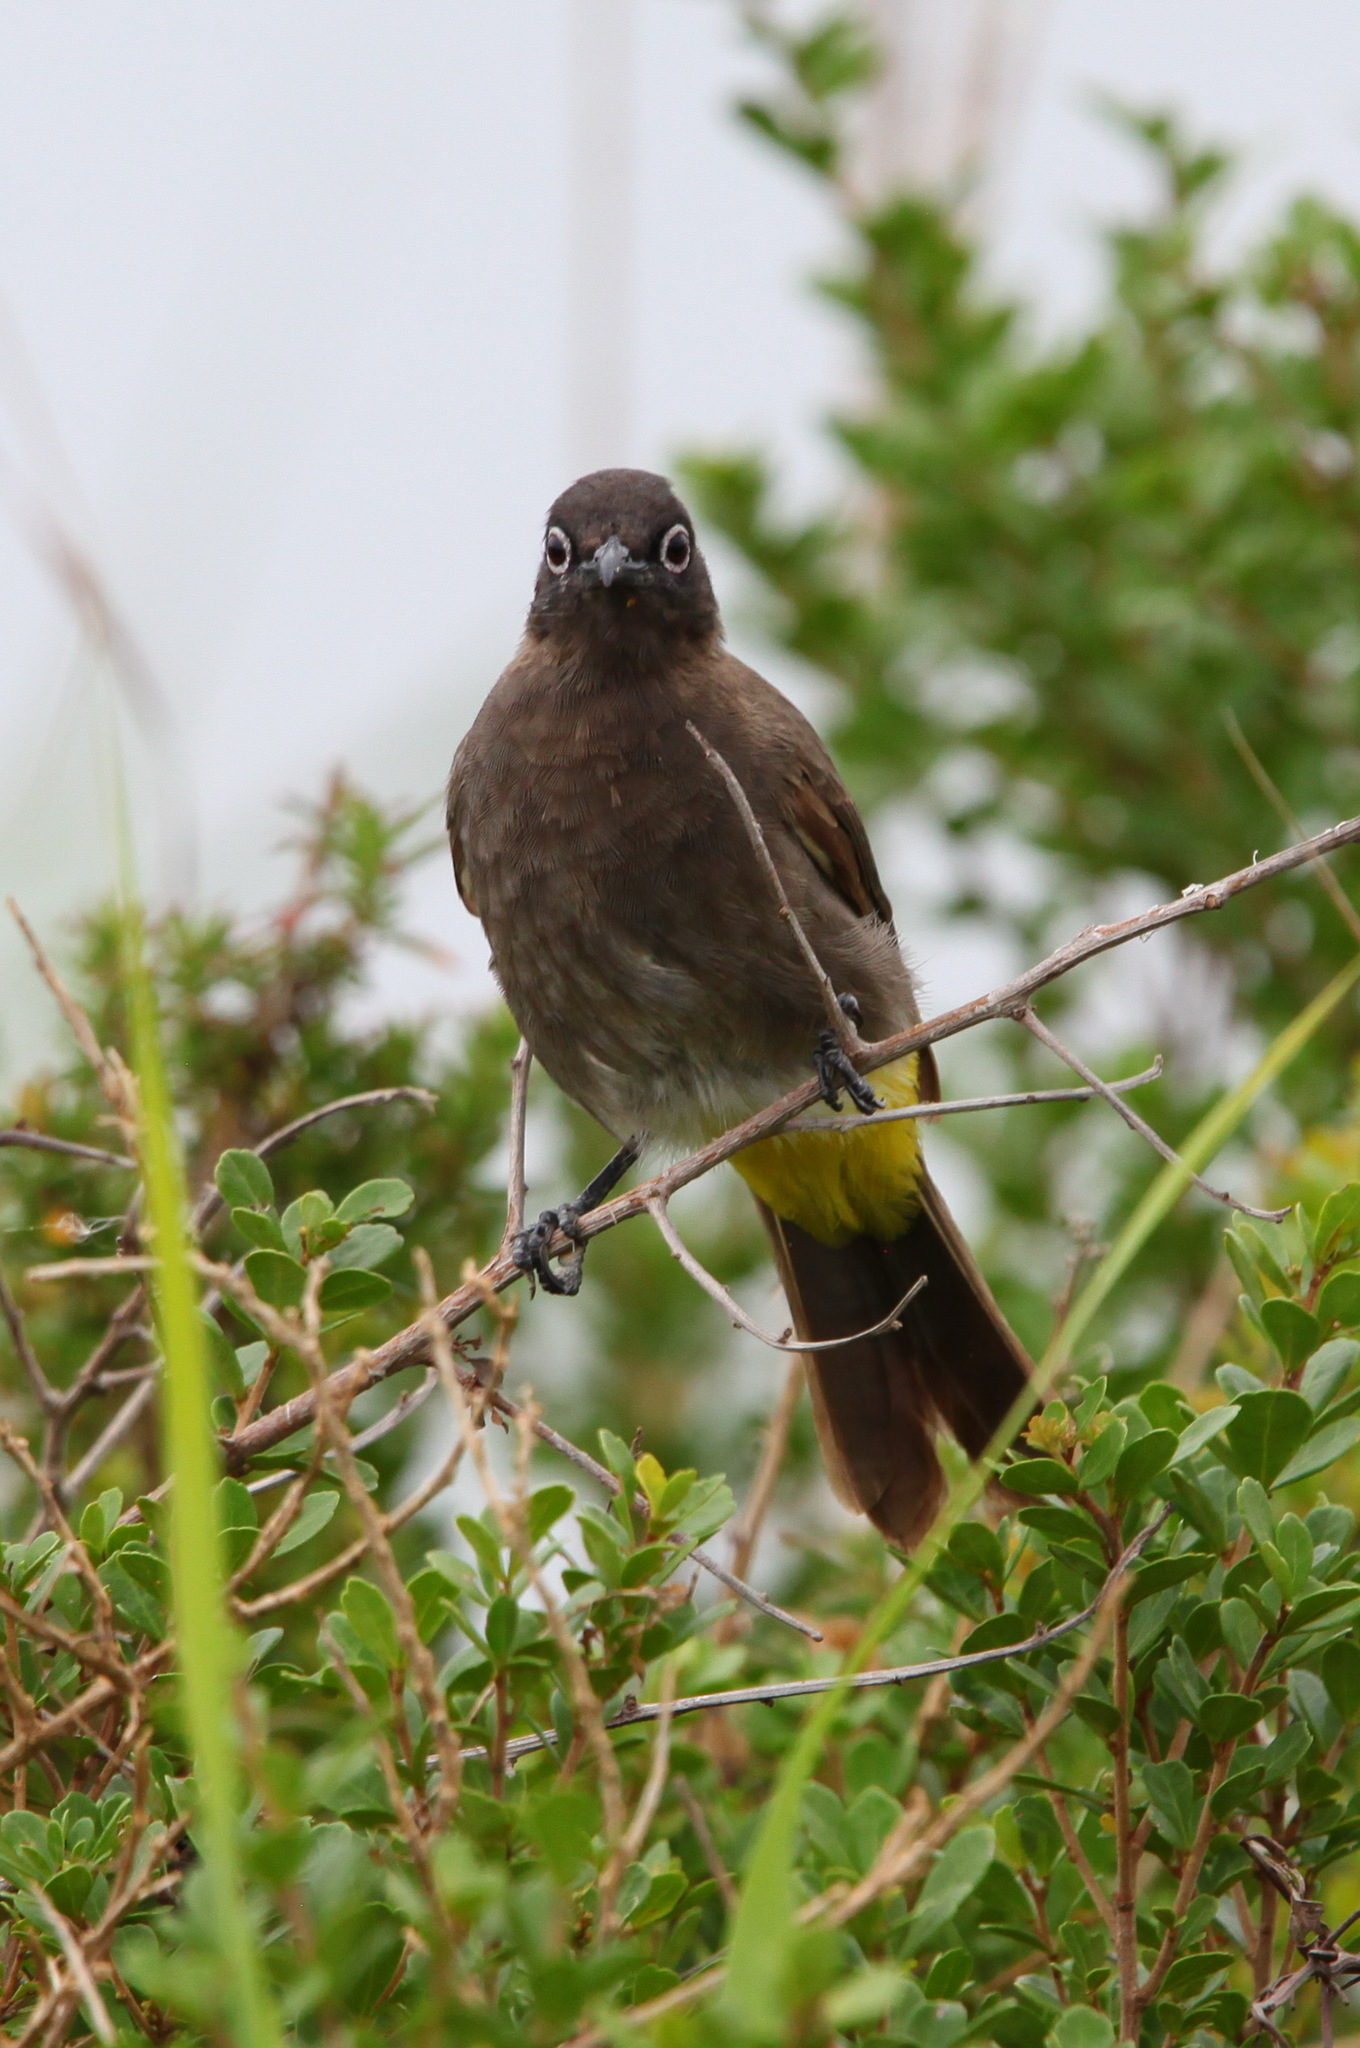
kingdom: Animalia
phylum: Chordata
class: Aves
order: Passeriformes
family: Pycnonotidae
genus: Pycnonotus
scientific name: Pycnonotus capensis
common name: Cape bulbul
